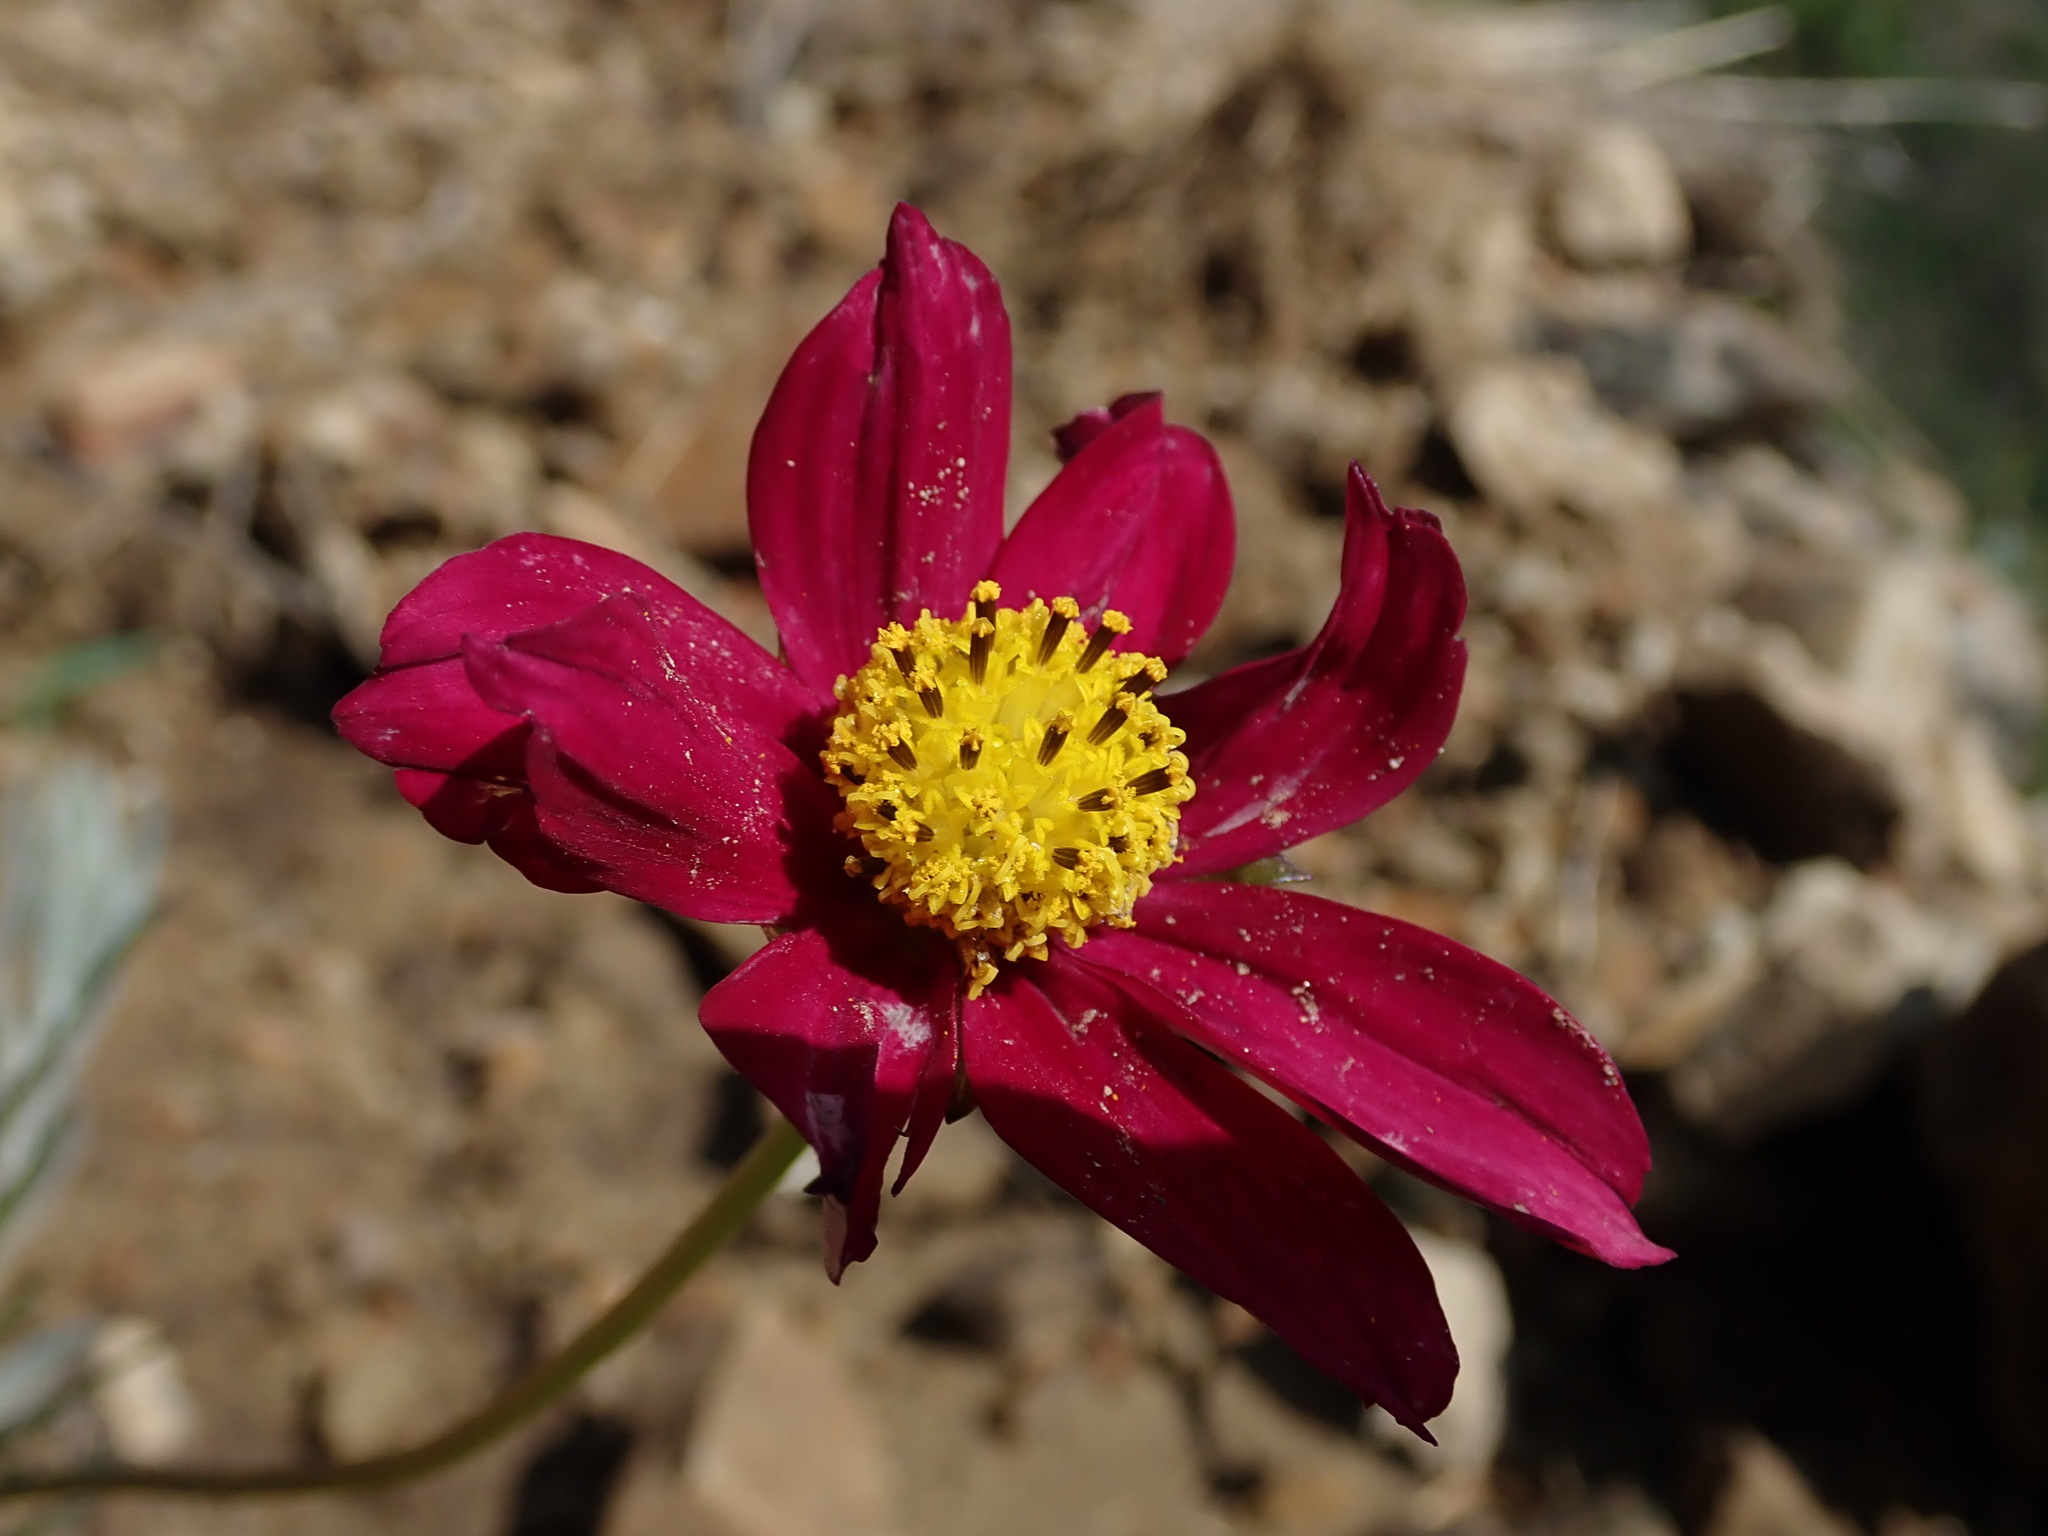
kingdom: Plantae
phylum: Tracheophyta
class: Magnoliopsida
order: Asterales
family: Asteraceae
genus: Cosmos
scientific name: Cosmos peucedanifolius
